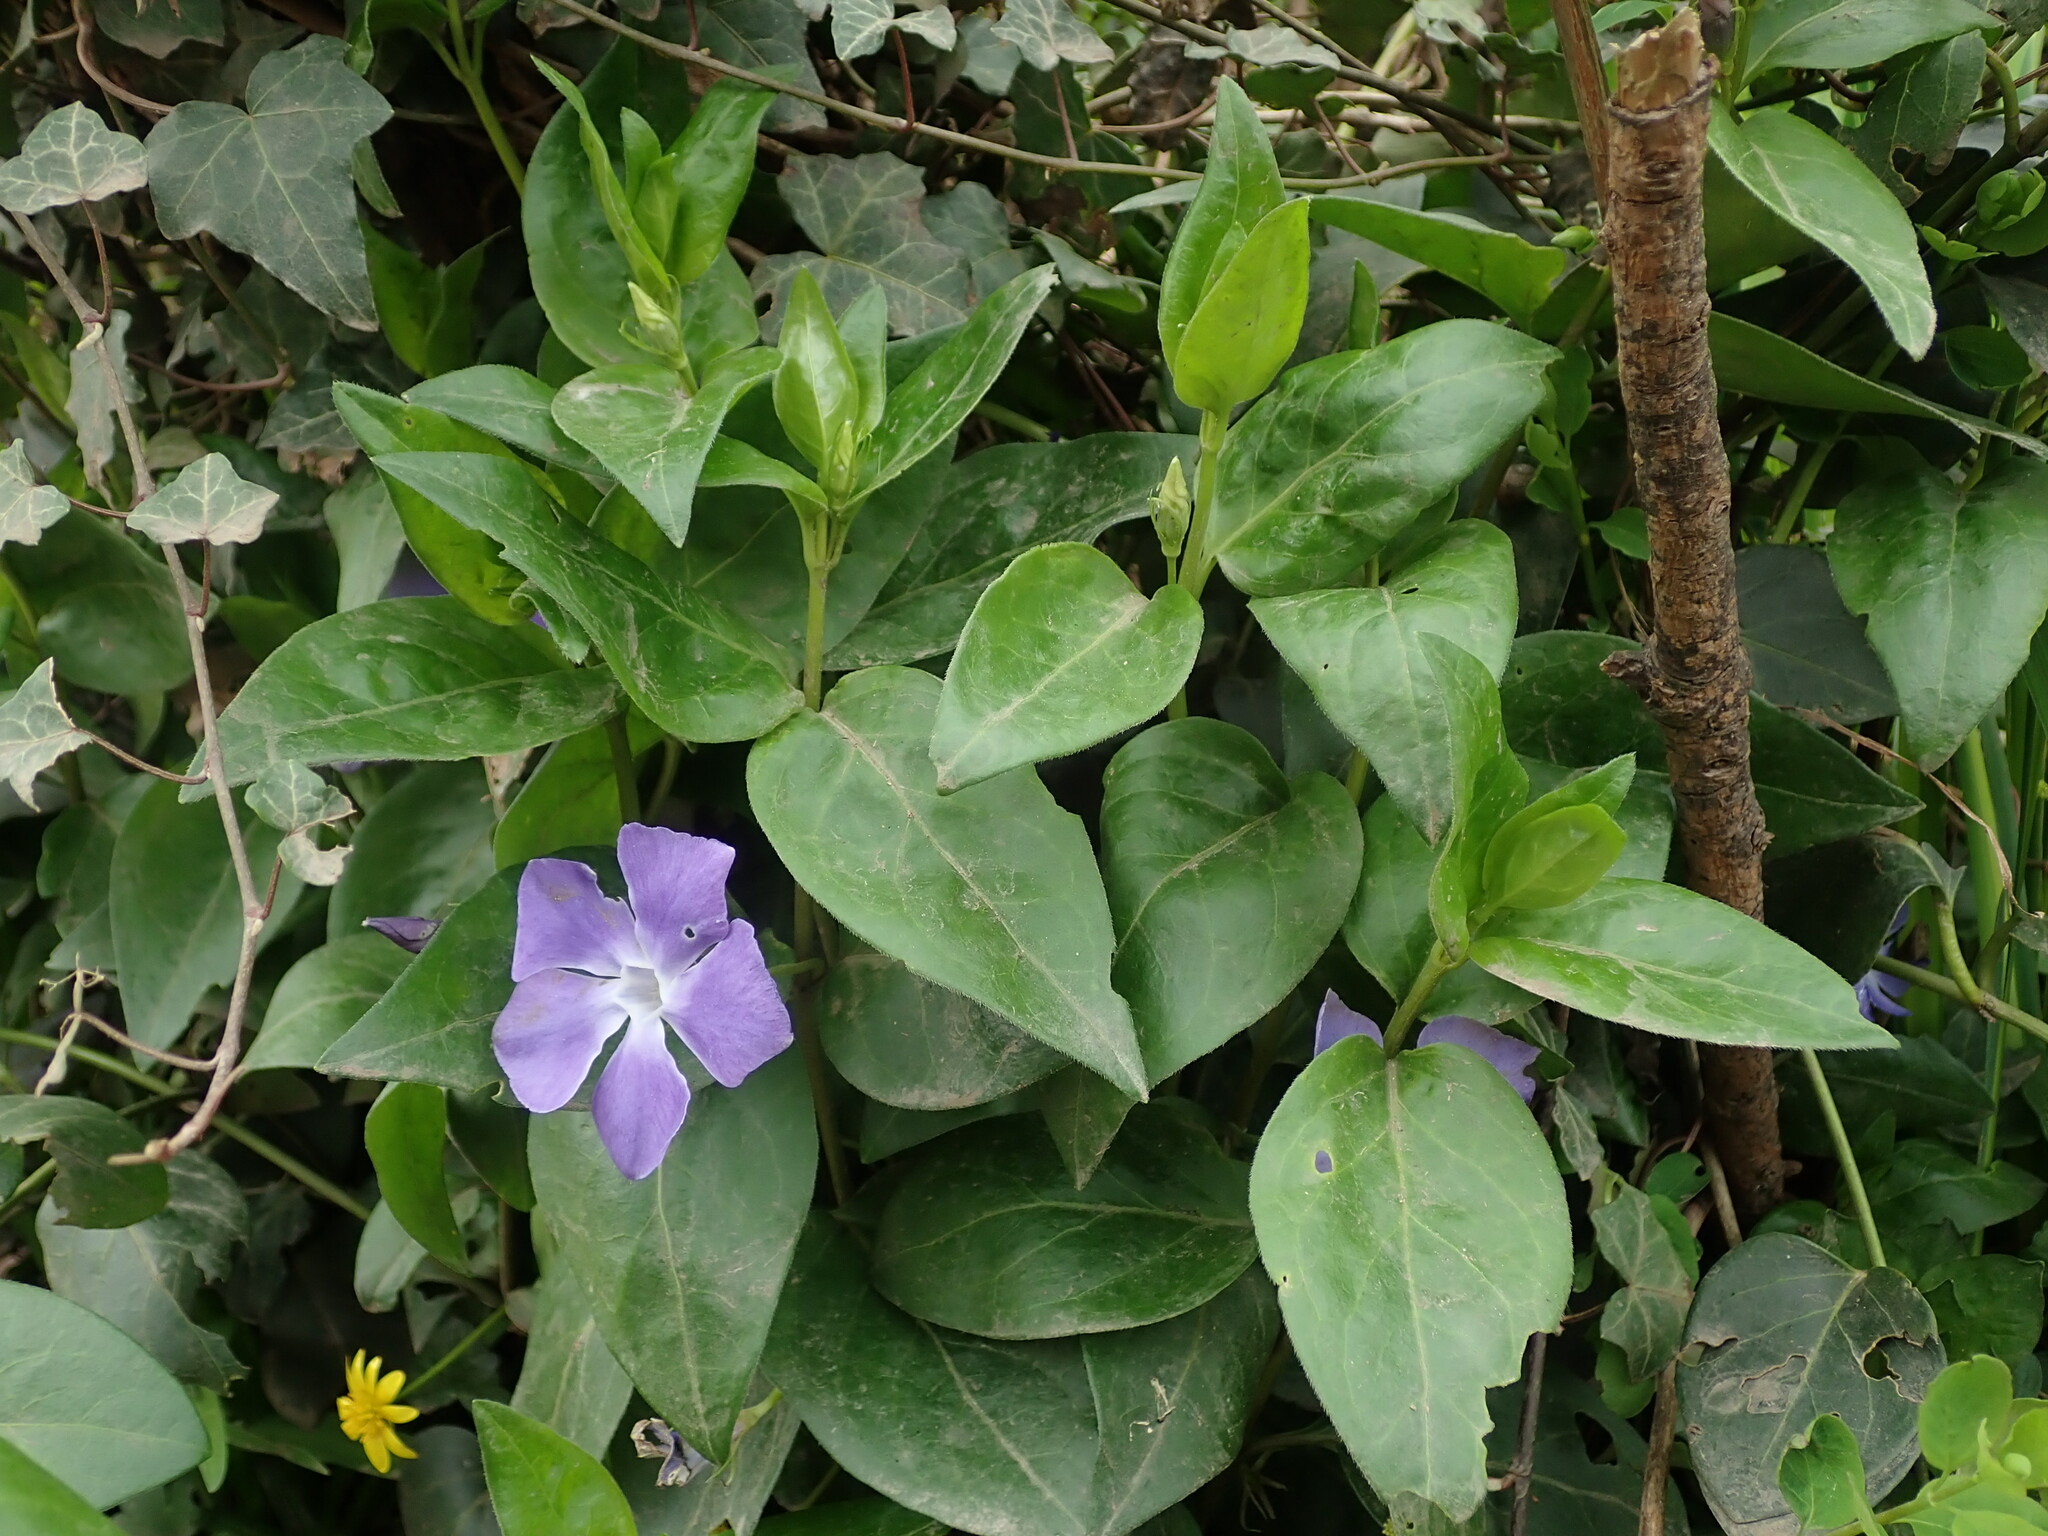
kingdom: Plantae
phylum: Tracheophyta
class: Magnoliopsida
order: Gentianales
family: Apocynaceae
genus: Vinca
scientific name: Vinca major
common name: Greater periwinkle
